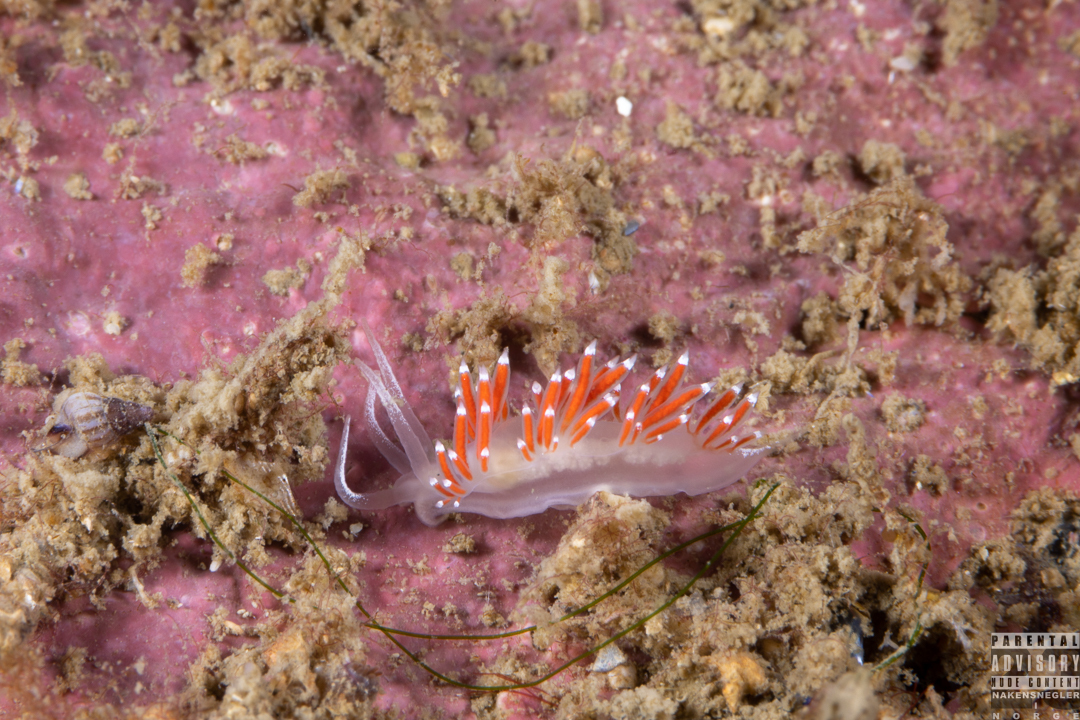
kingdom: Animalia
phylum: Mollusca
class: Gastropoda
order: Nudibranchia
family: Coryphellidae
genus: Coryphella
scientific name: Coryphella gracilis
